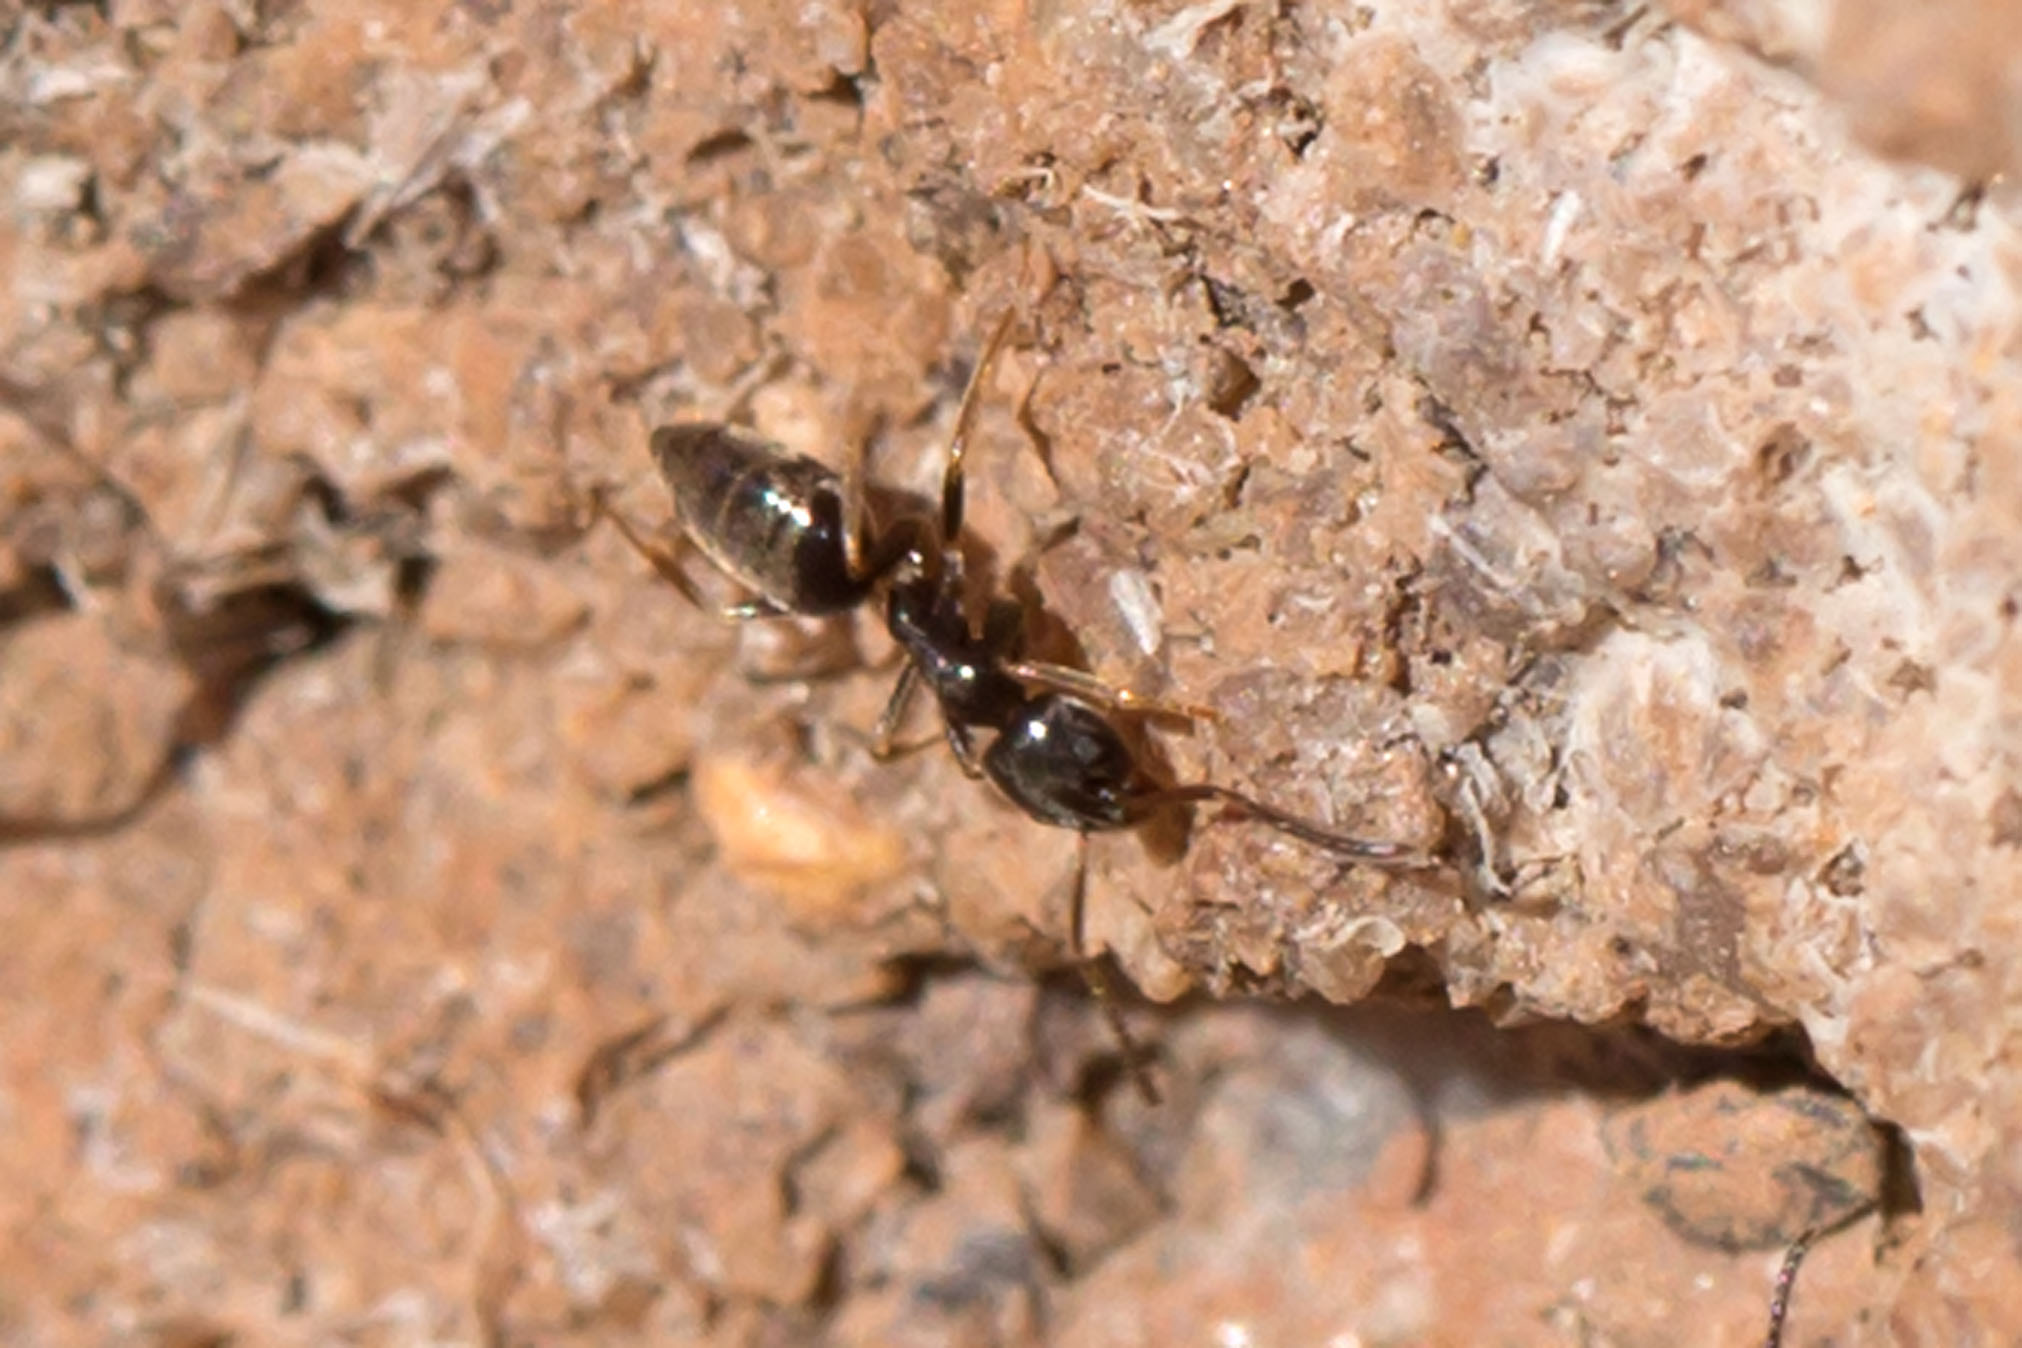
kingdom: Animalia
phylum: Arthropoda
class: Insecta
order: Hymenoptera
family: Formicidae
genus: Tapinoma
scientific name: Tapinoma sessile
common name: Odorous house ant
